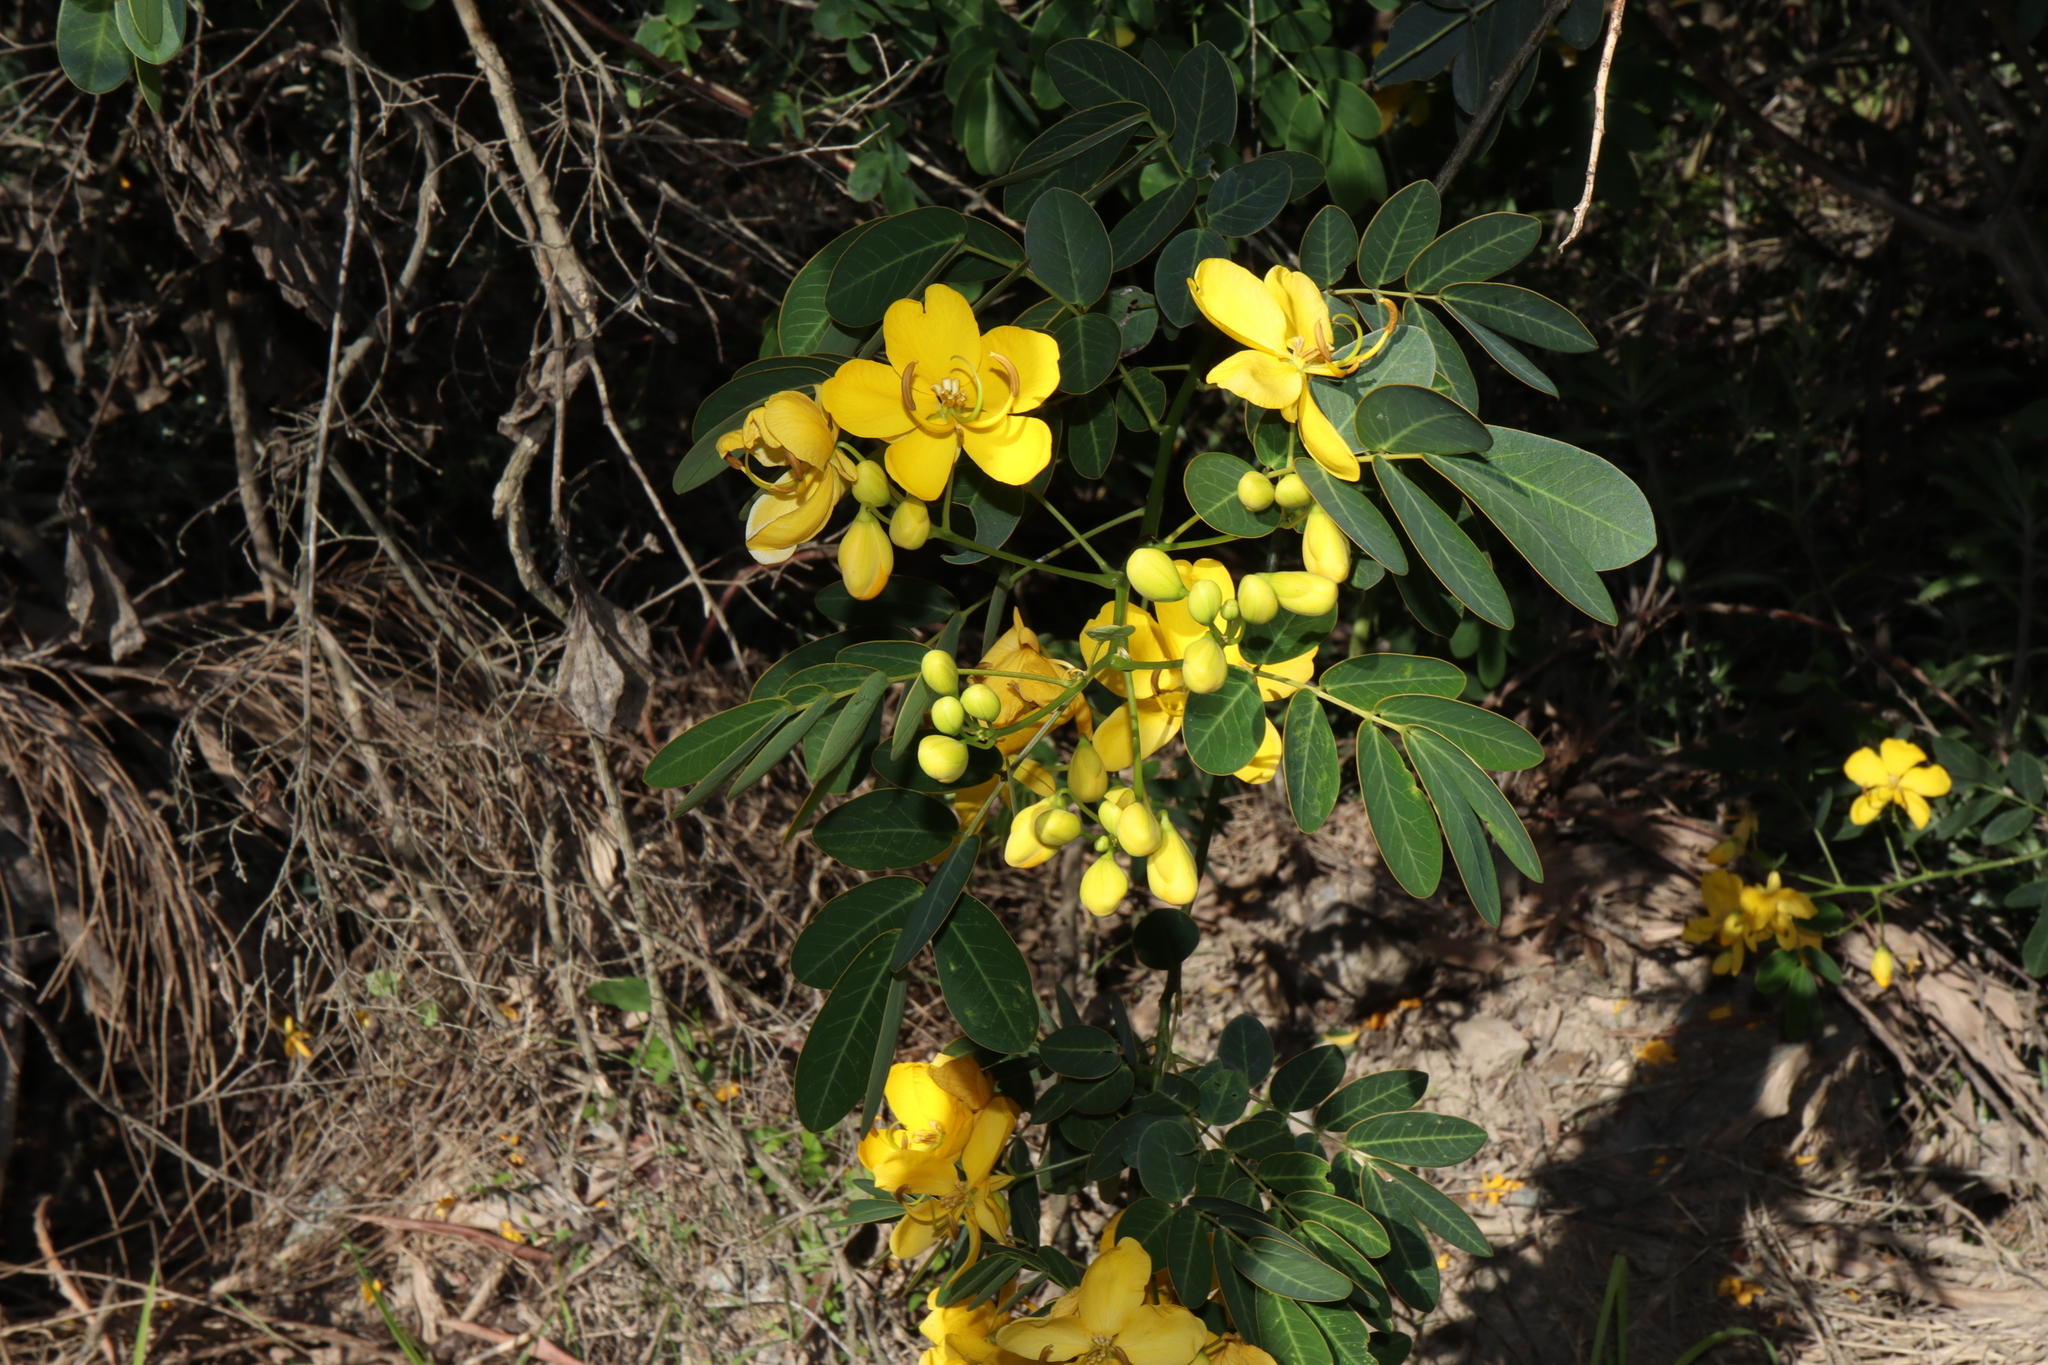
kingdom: Plantae
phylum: Tracheophyta
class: Magnoliopsida
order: Fabales
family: Fabaceae
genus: Senna
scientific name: Senna pendula
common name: Easter cassia
